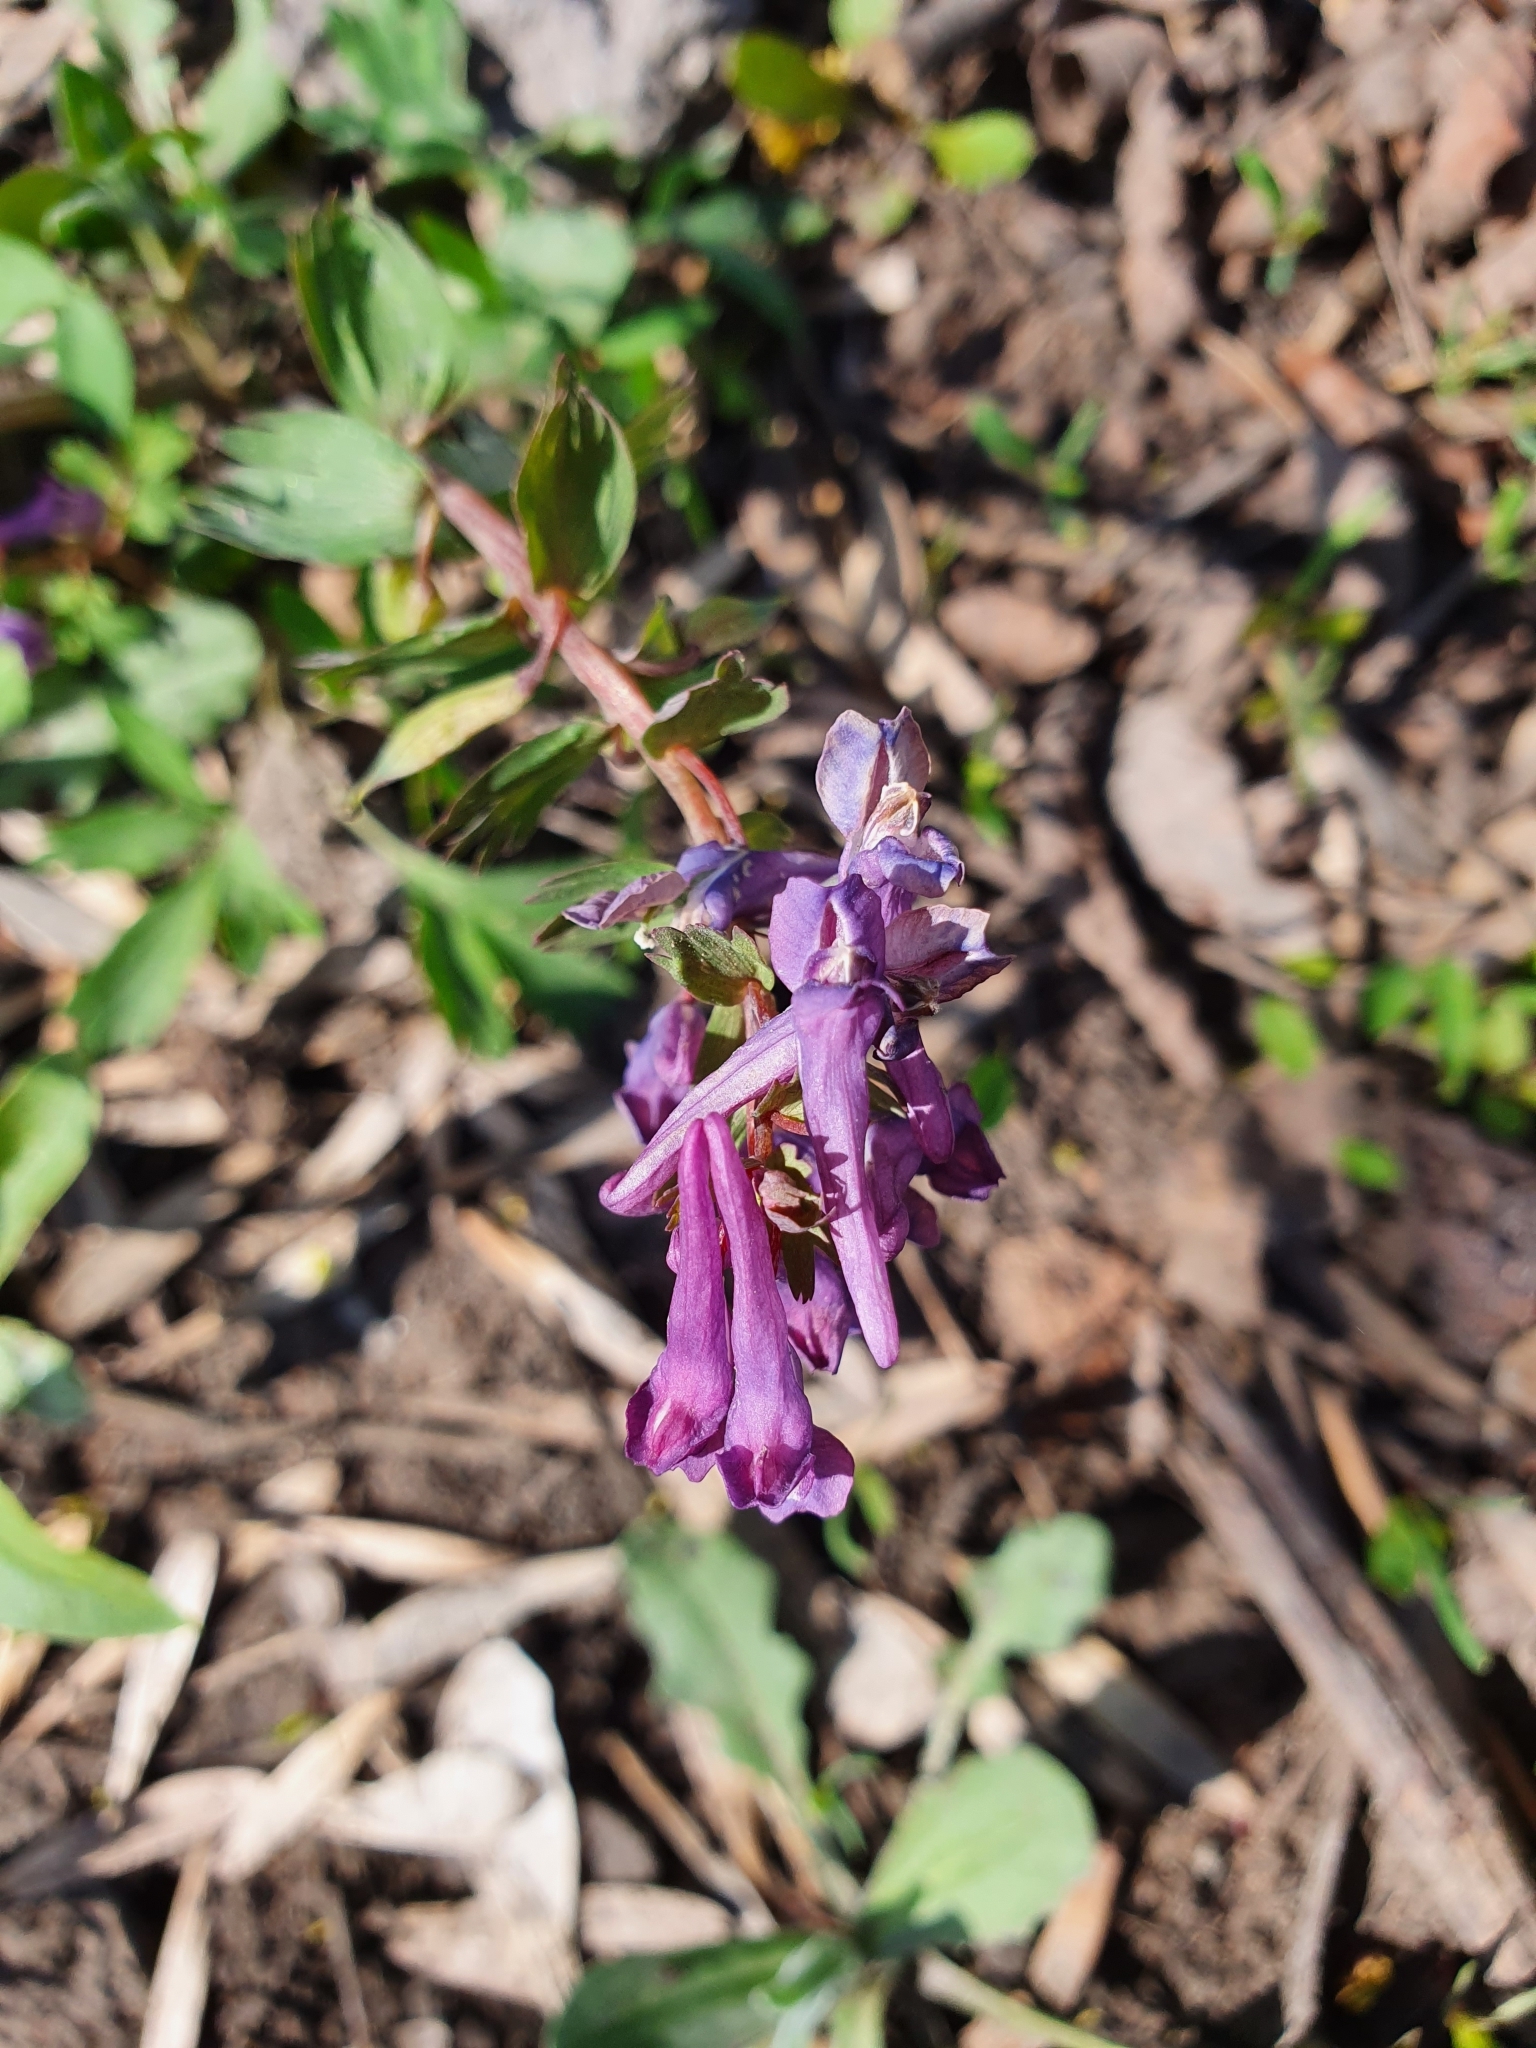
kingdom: Plantae
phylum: Tracheophyta
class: Magnoliopsida
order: Ranunculales
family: Papaveraceae
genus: Corydalis
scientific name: Corydalis solida
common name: Bird-in-a-bush
